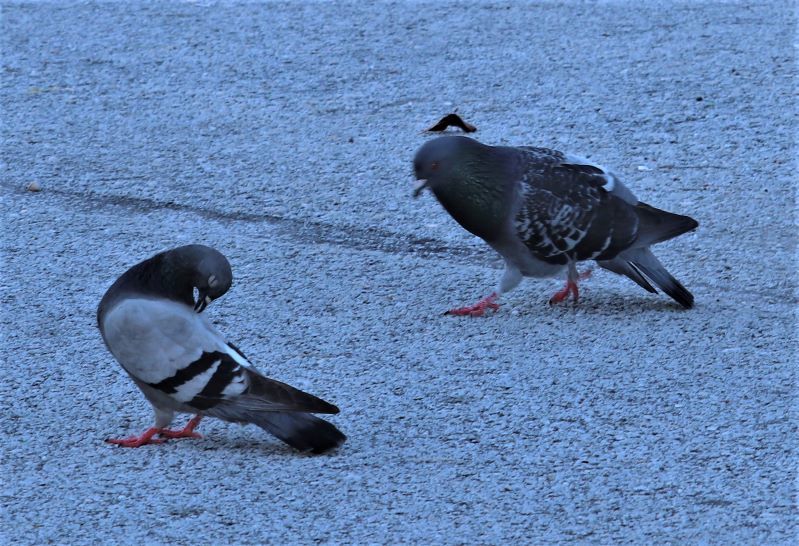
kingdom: Animalia
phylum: Chordata
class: Aves
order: Columbiformes
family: Columbidae
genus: Columba
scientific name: Columba livia
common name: Rock pigeon
